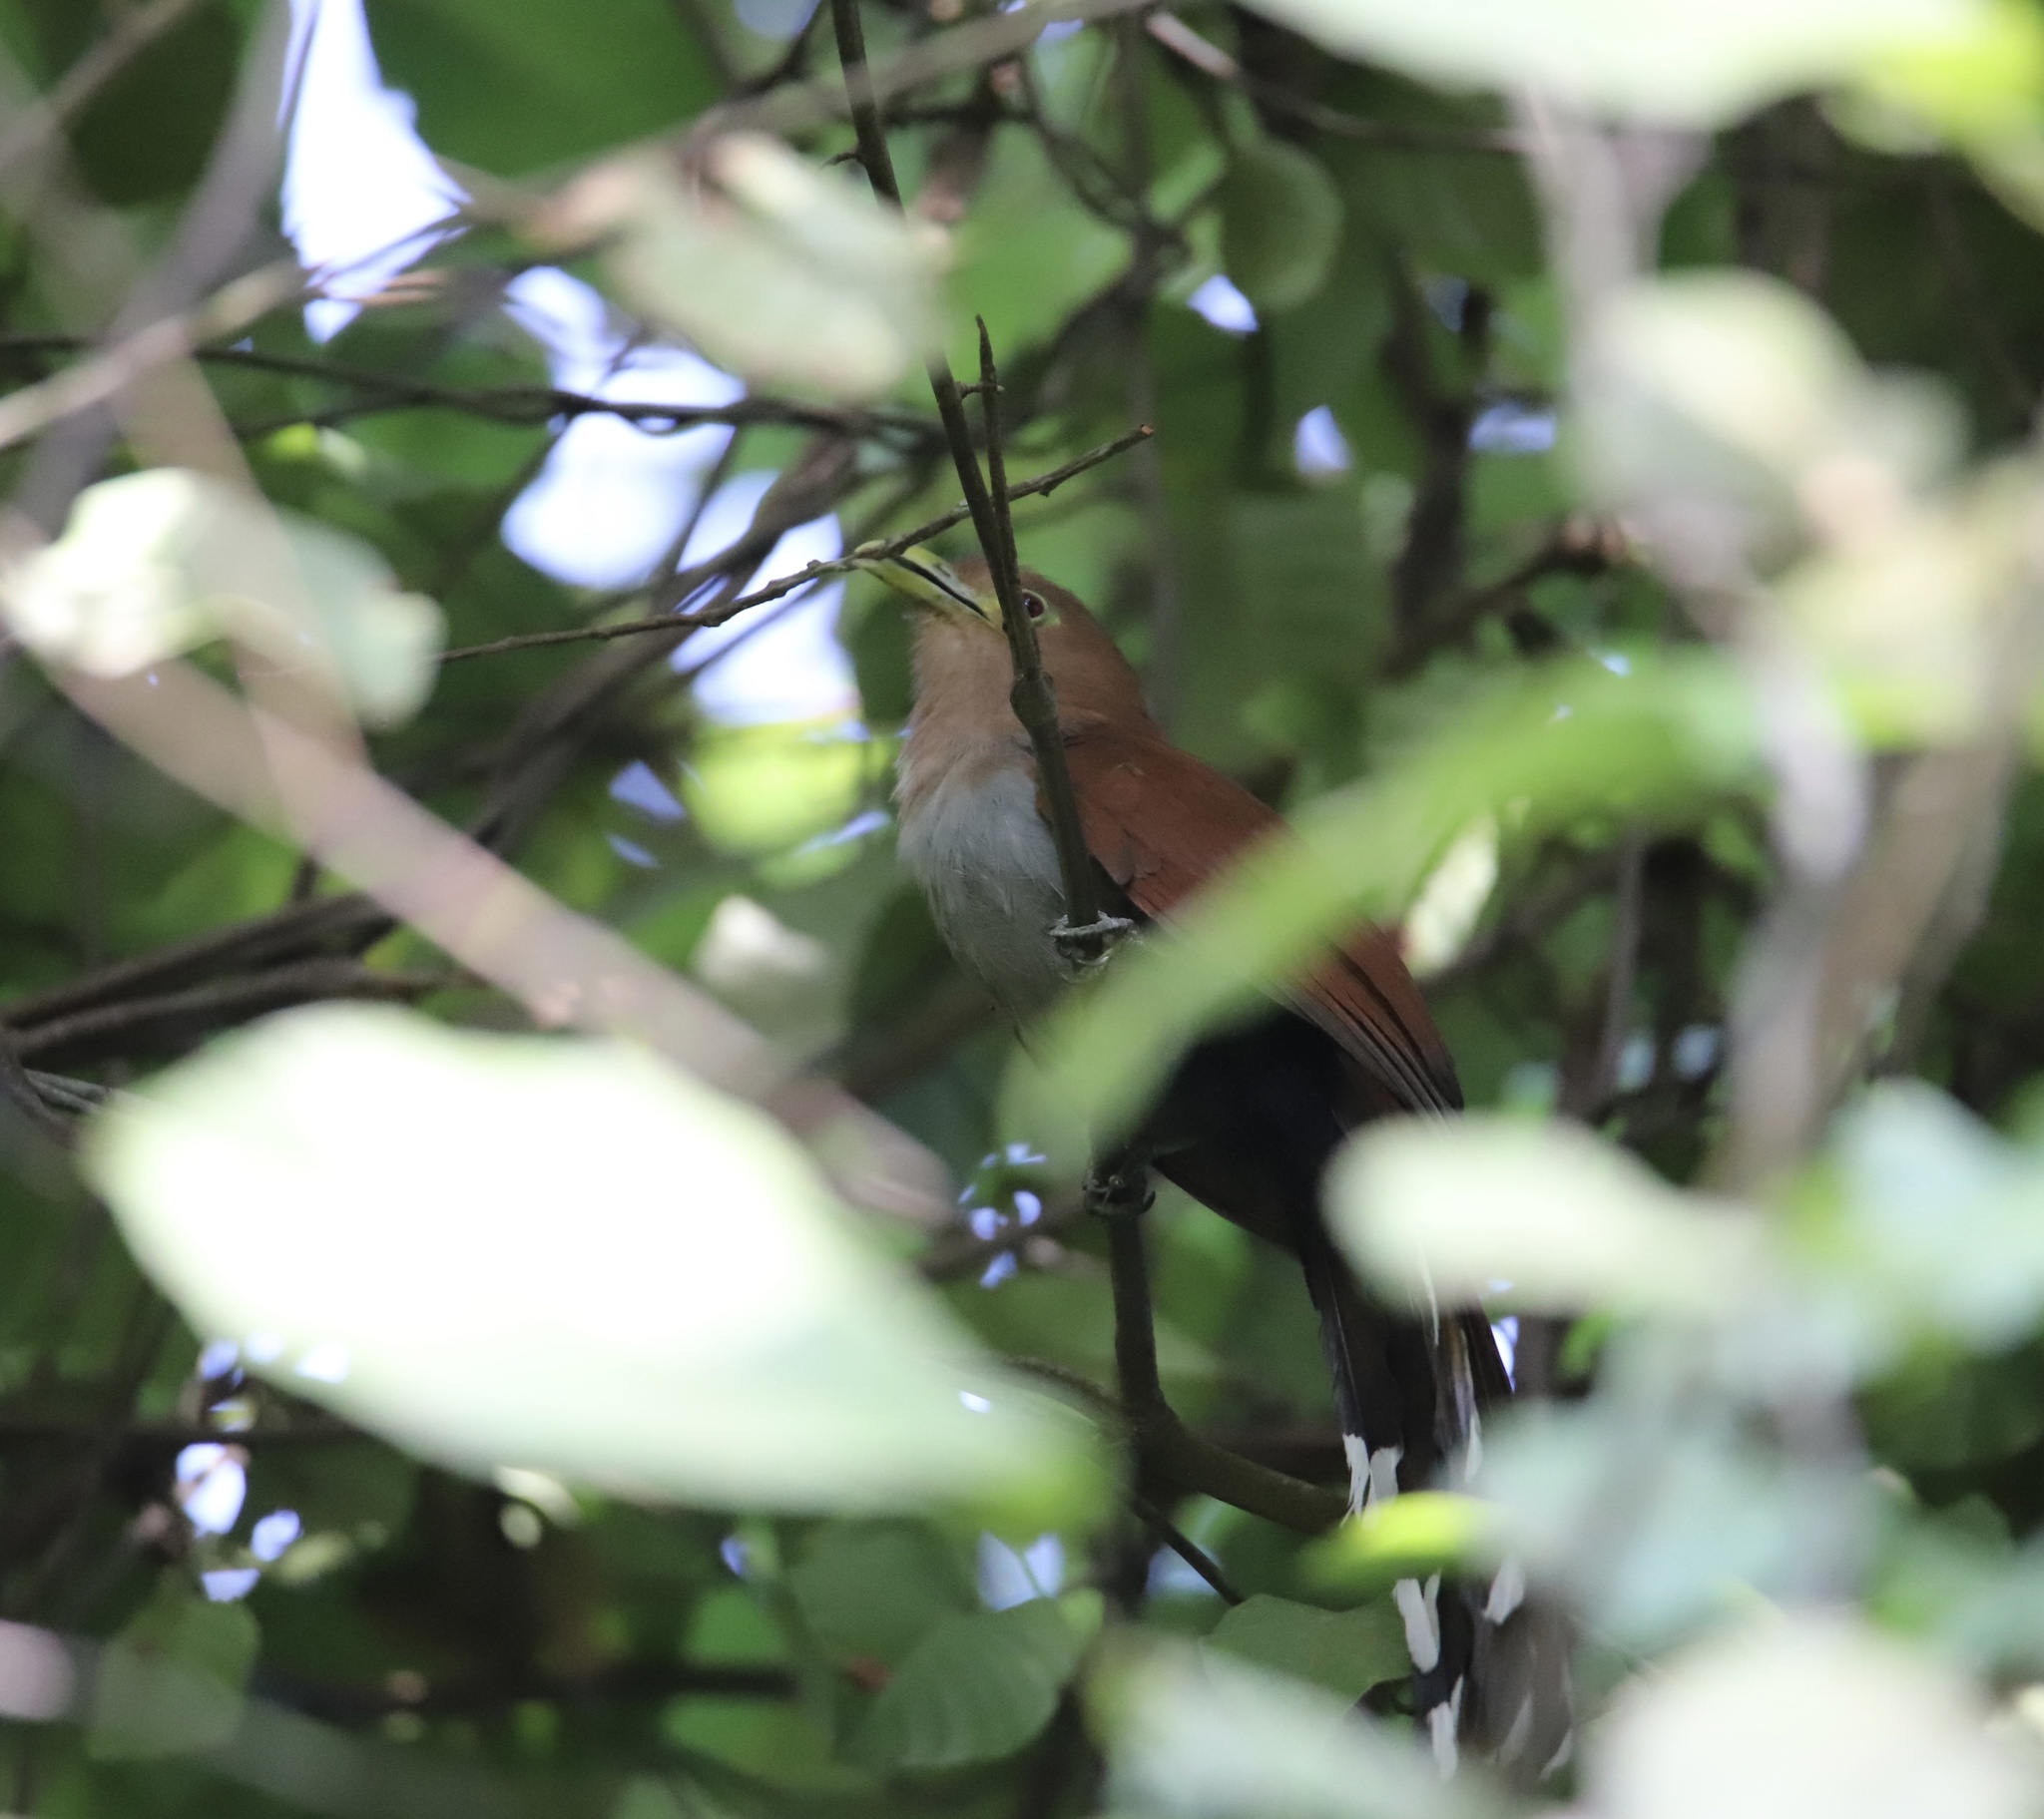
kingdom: Animalia
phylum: Chordata
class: Aves
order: Cuculiformes
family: Cuculidae
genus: Piaya
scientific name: Piaya cayana
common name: Squirrel cuckoo
